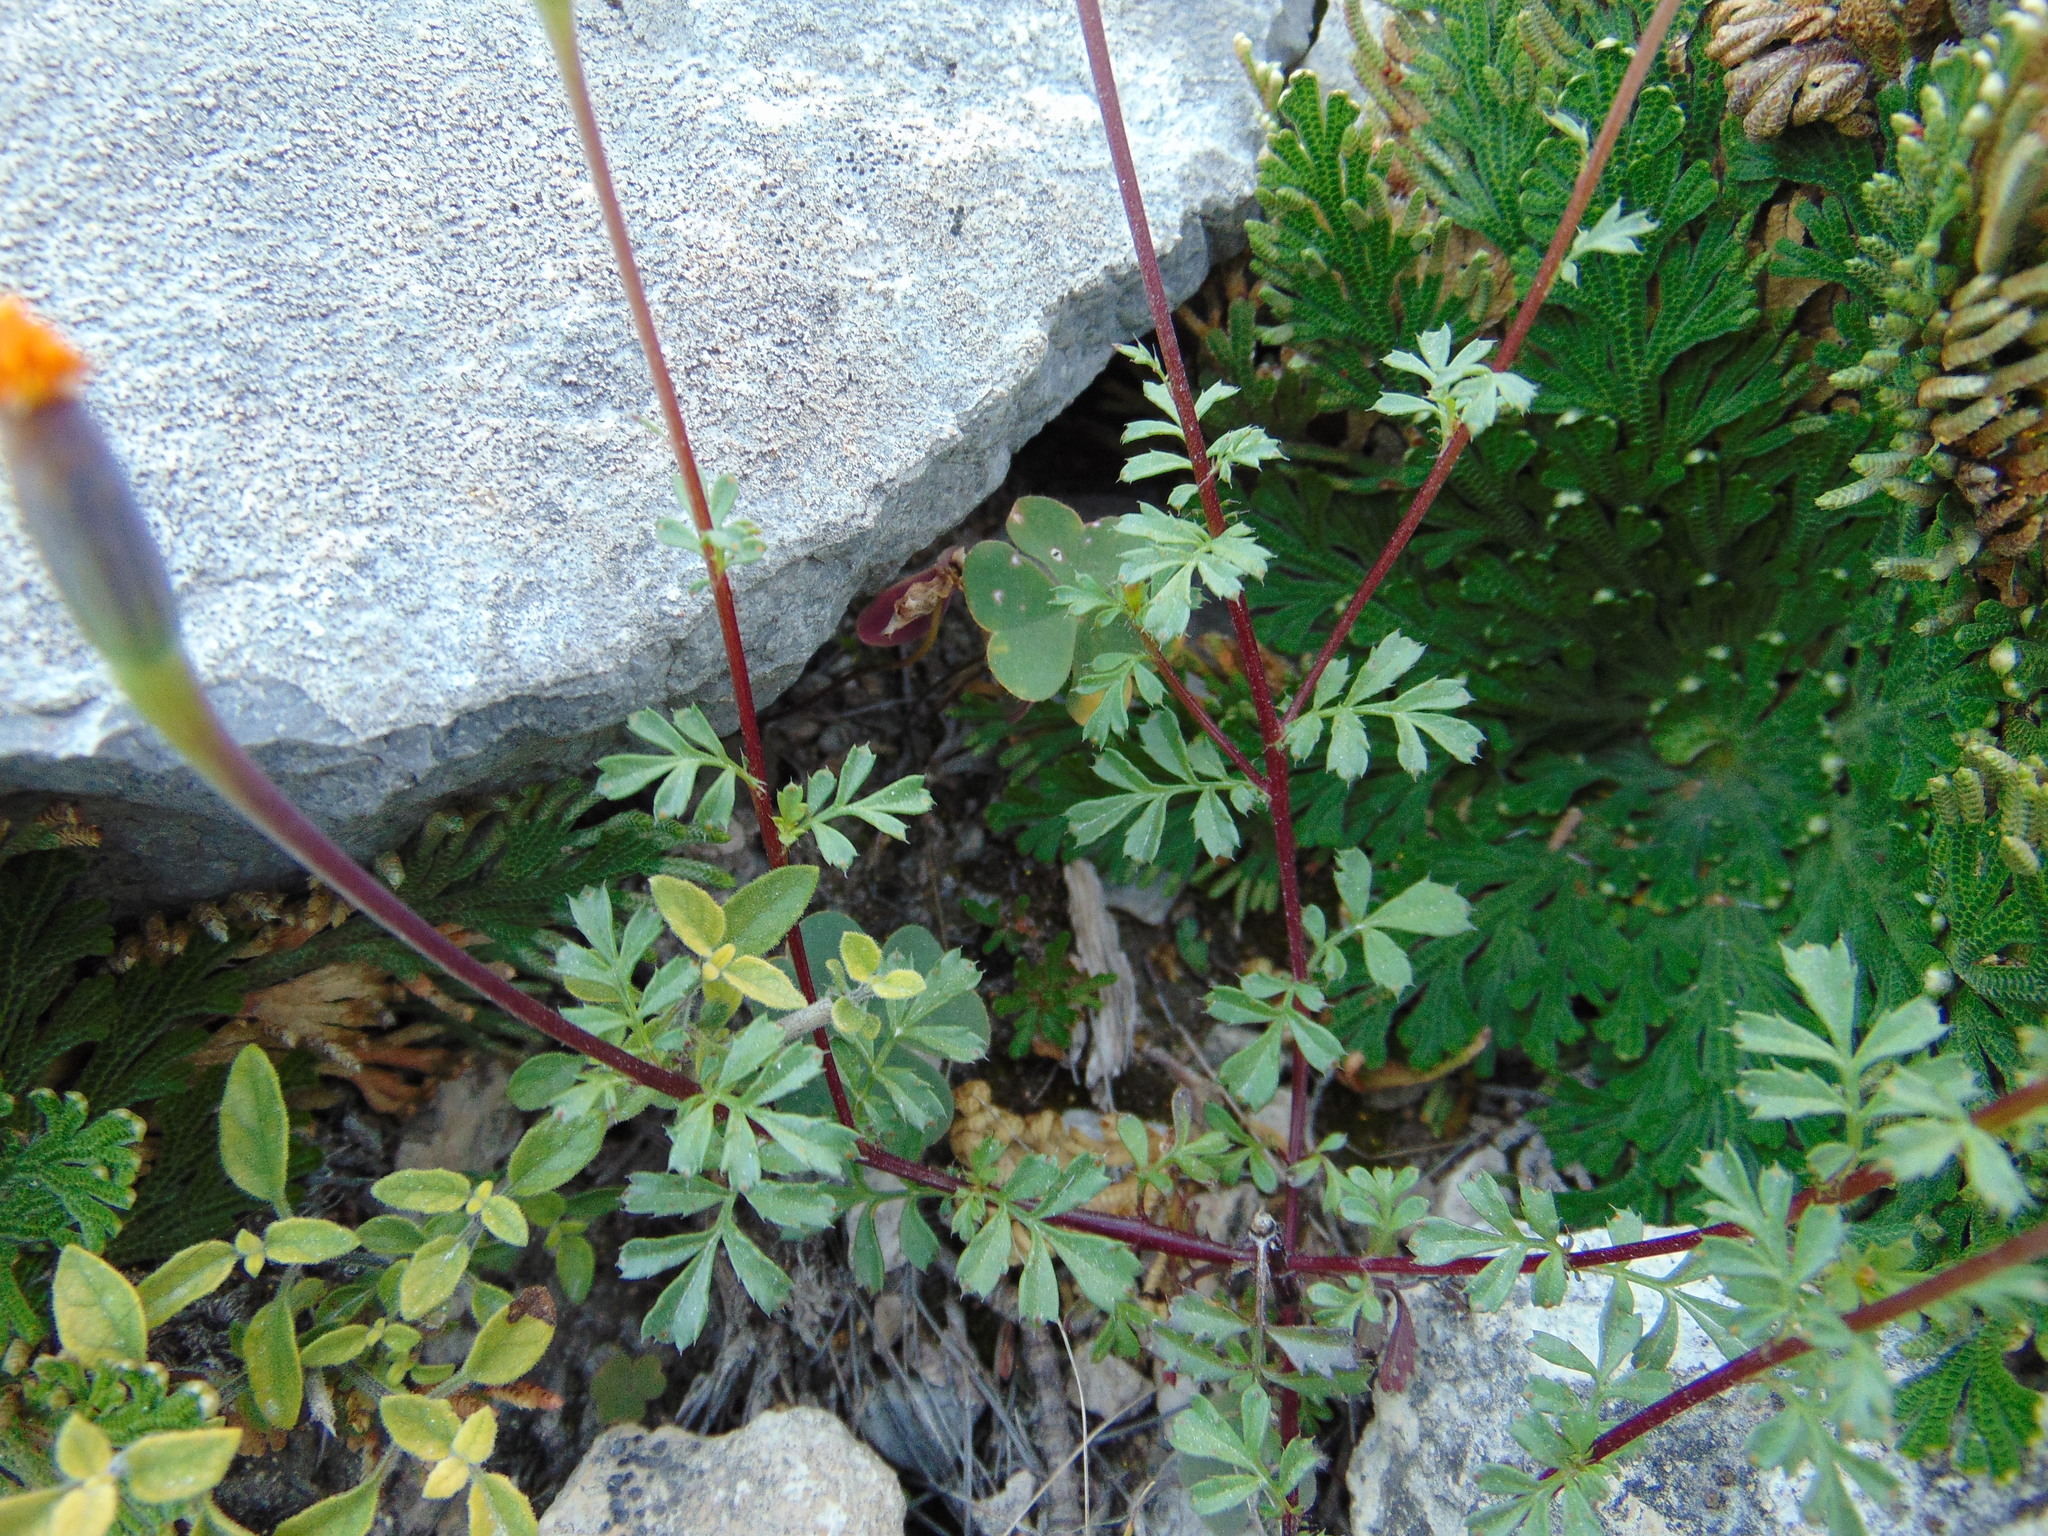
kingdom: Plantae
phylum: Tracheophyta
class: Magnoliopsida
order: Asterales
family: Asteraceae
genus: Tagetes
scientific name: Tagetes moorei
